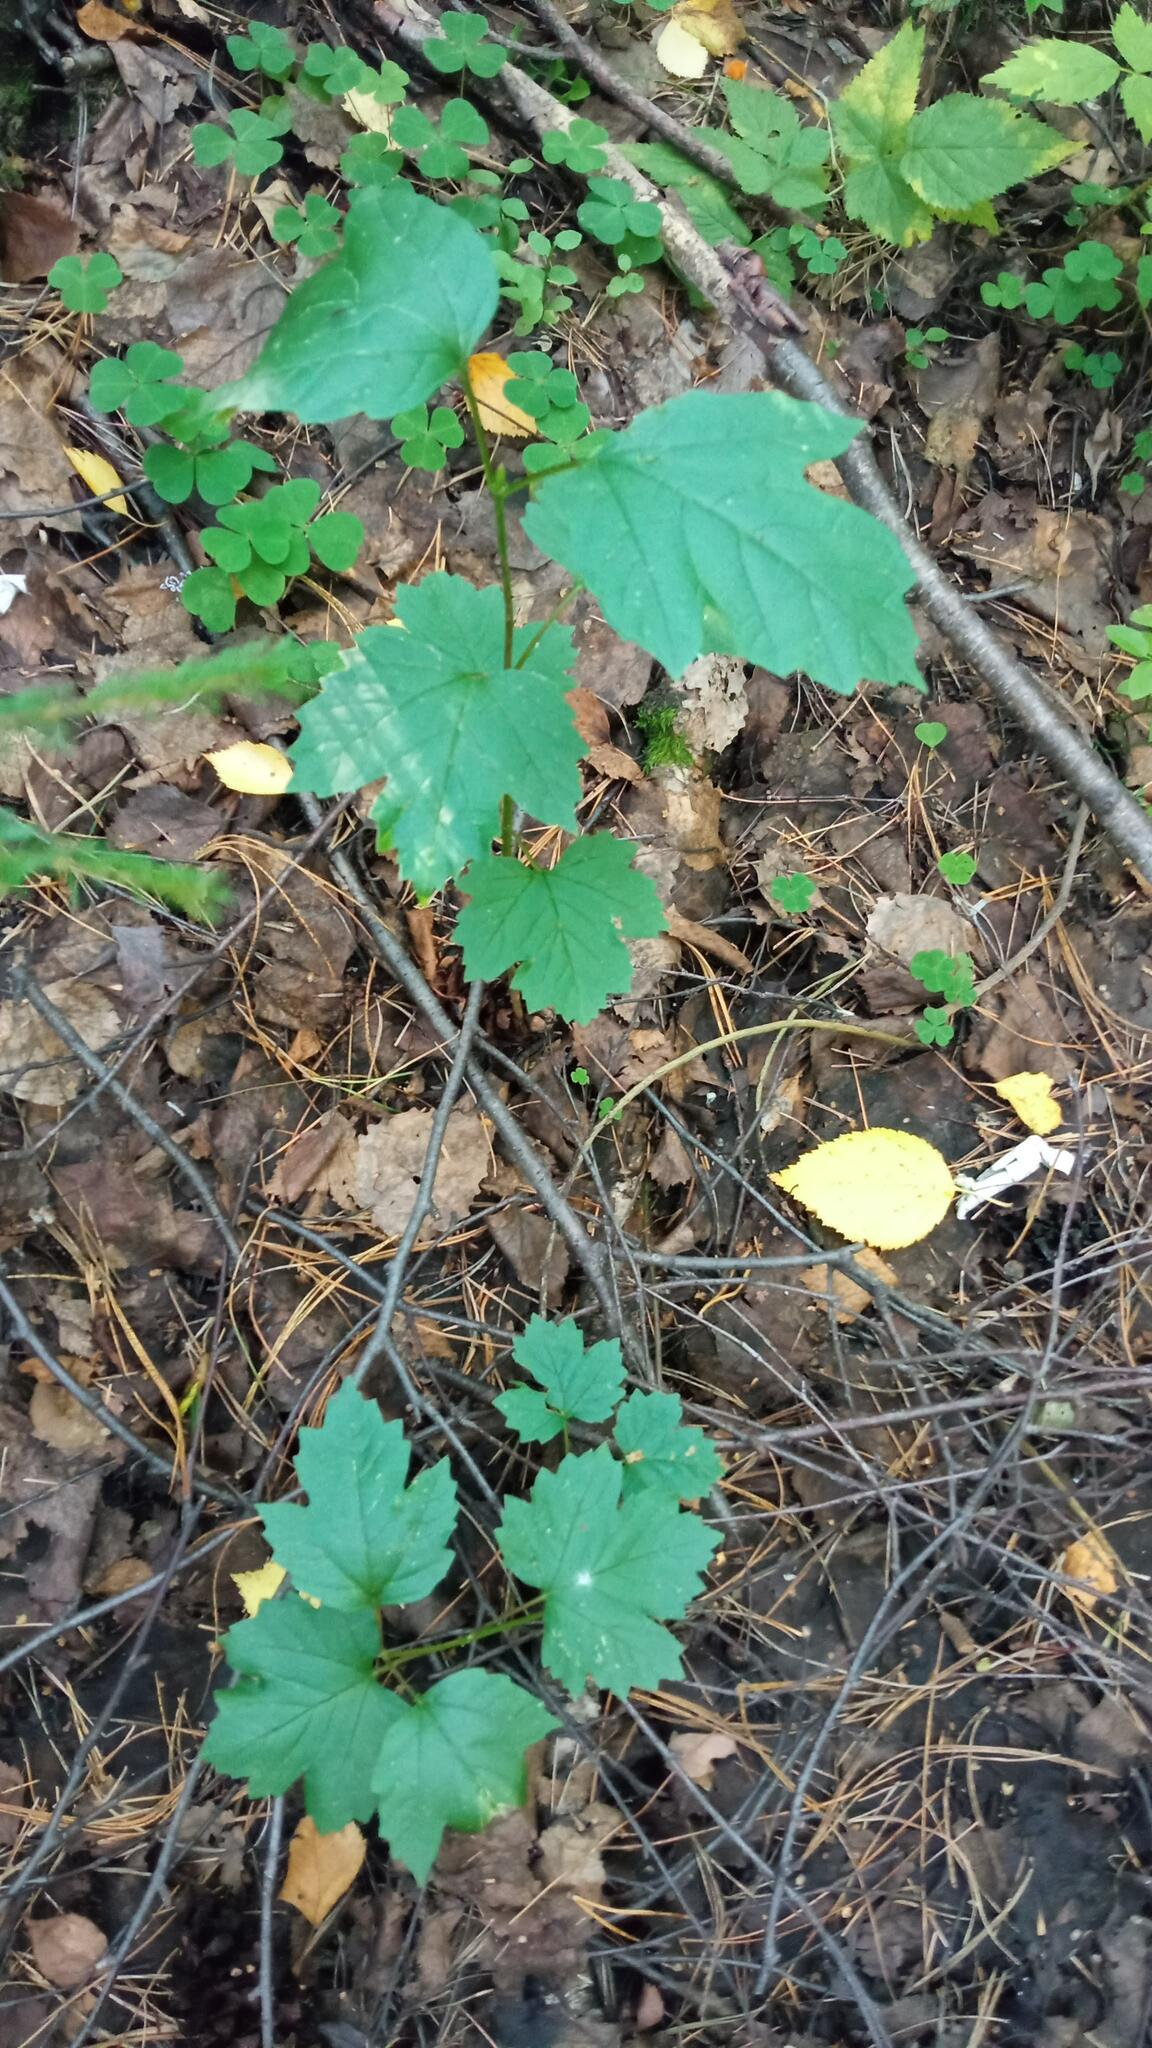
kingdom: Plantae
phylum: Tracheophyta
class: Magnoliopsida
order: Dipsacales
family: Viburnaceae
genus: Viburnum
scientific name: Viburnum opulus
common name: Guelder-rose
